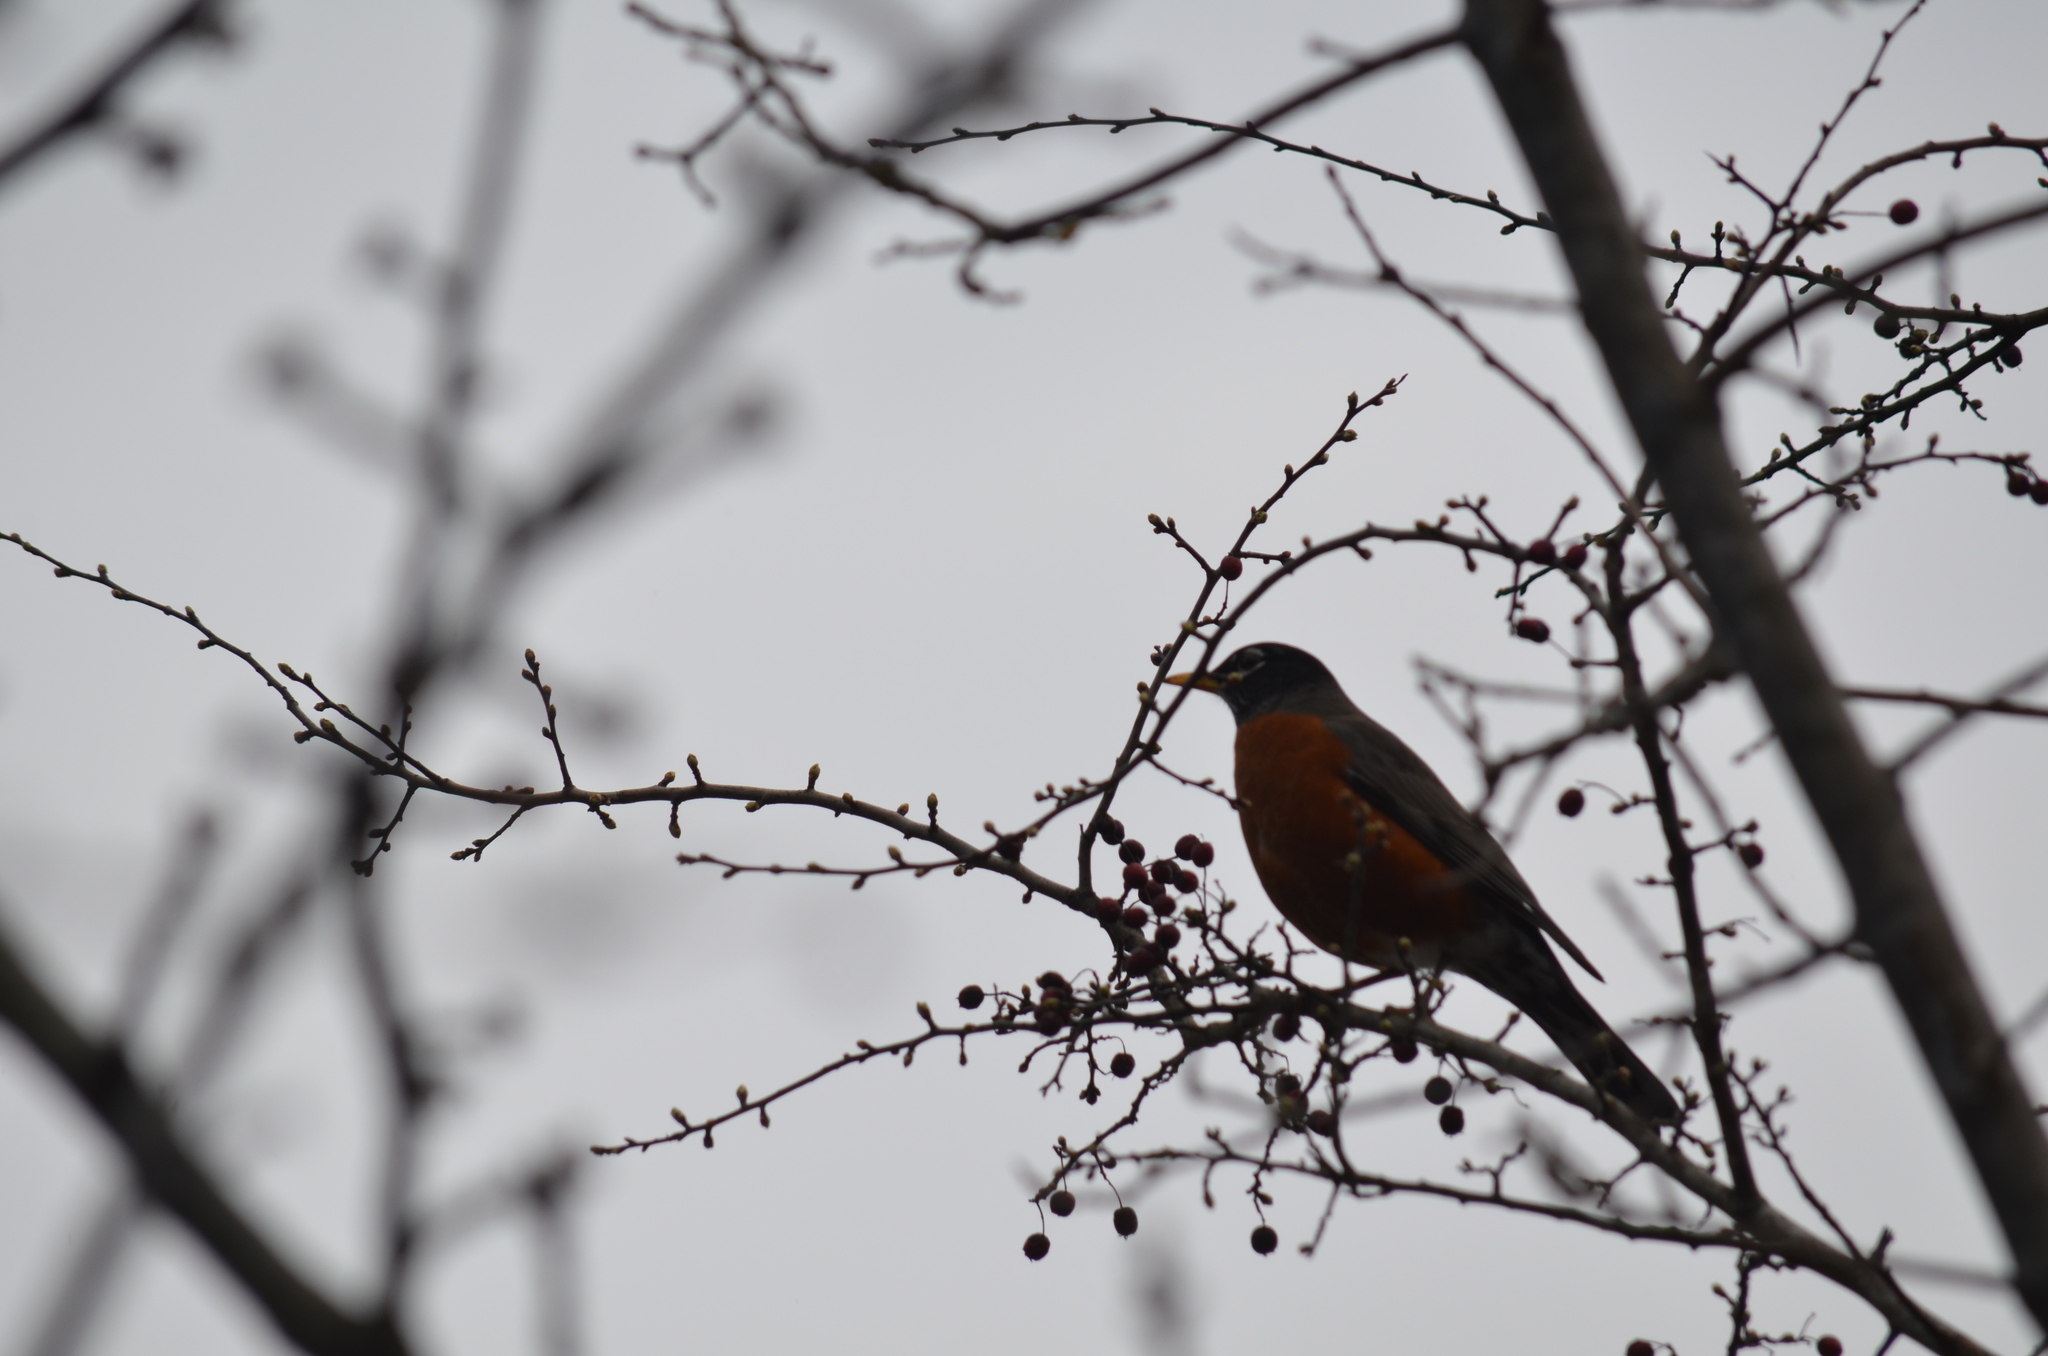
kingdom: Animalia
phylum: Chordata
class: Aves
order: Passeriformes
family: Turdidae
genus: Turdus
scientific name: Turdus migratorius
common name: American robin
